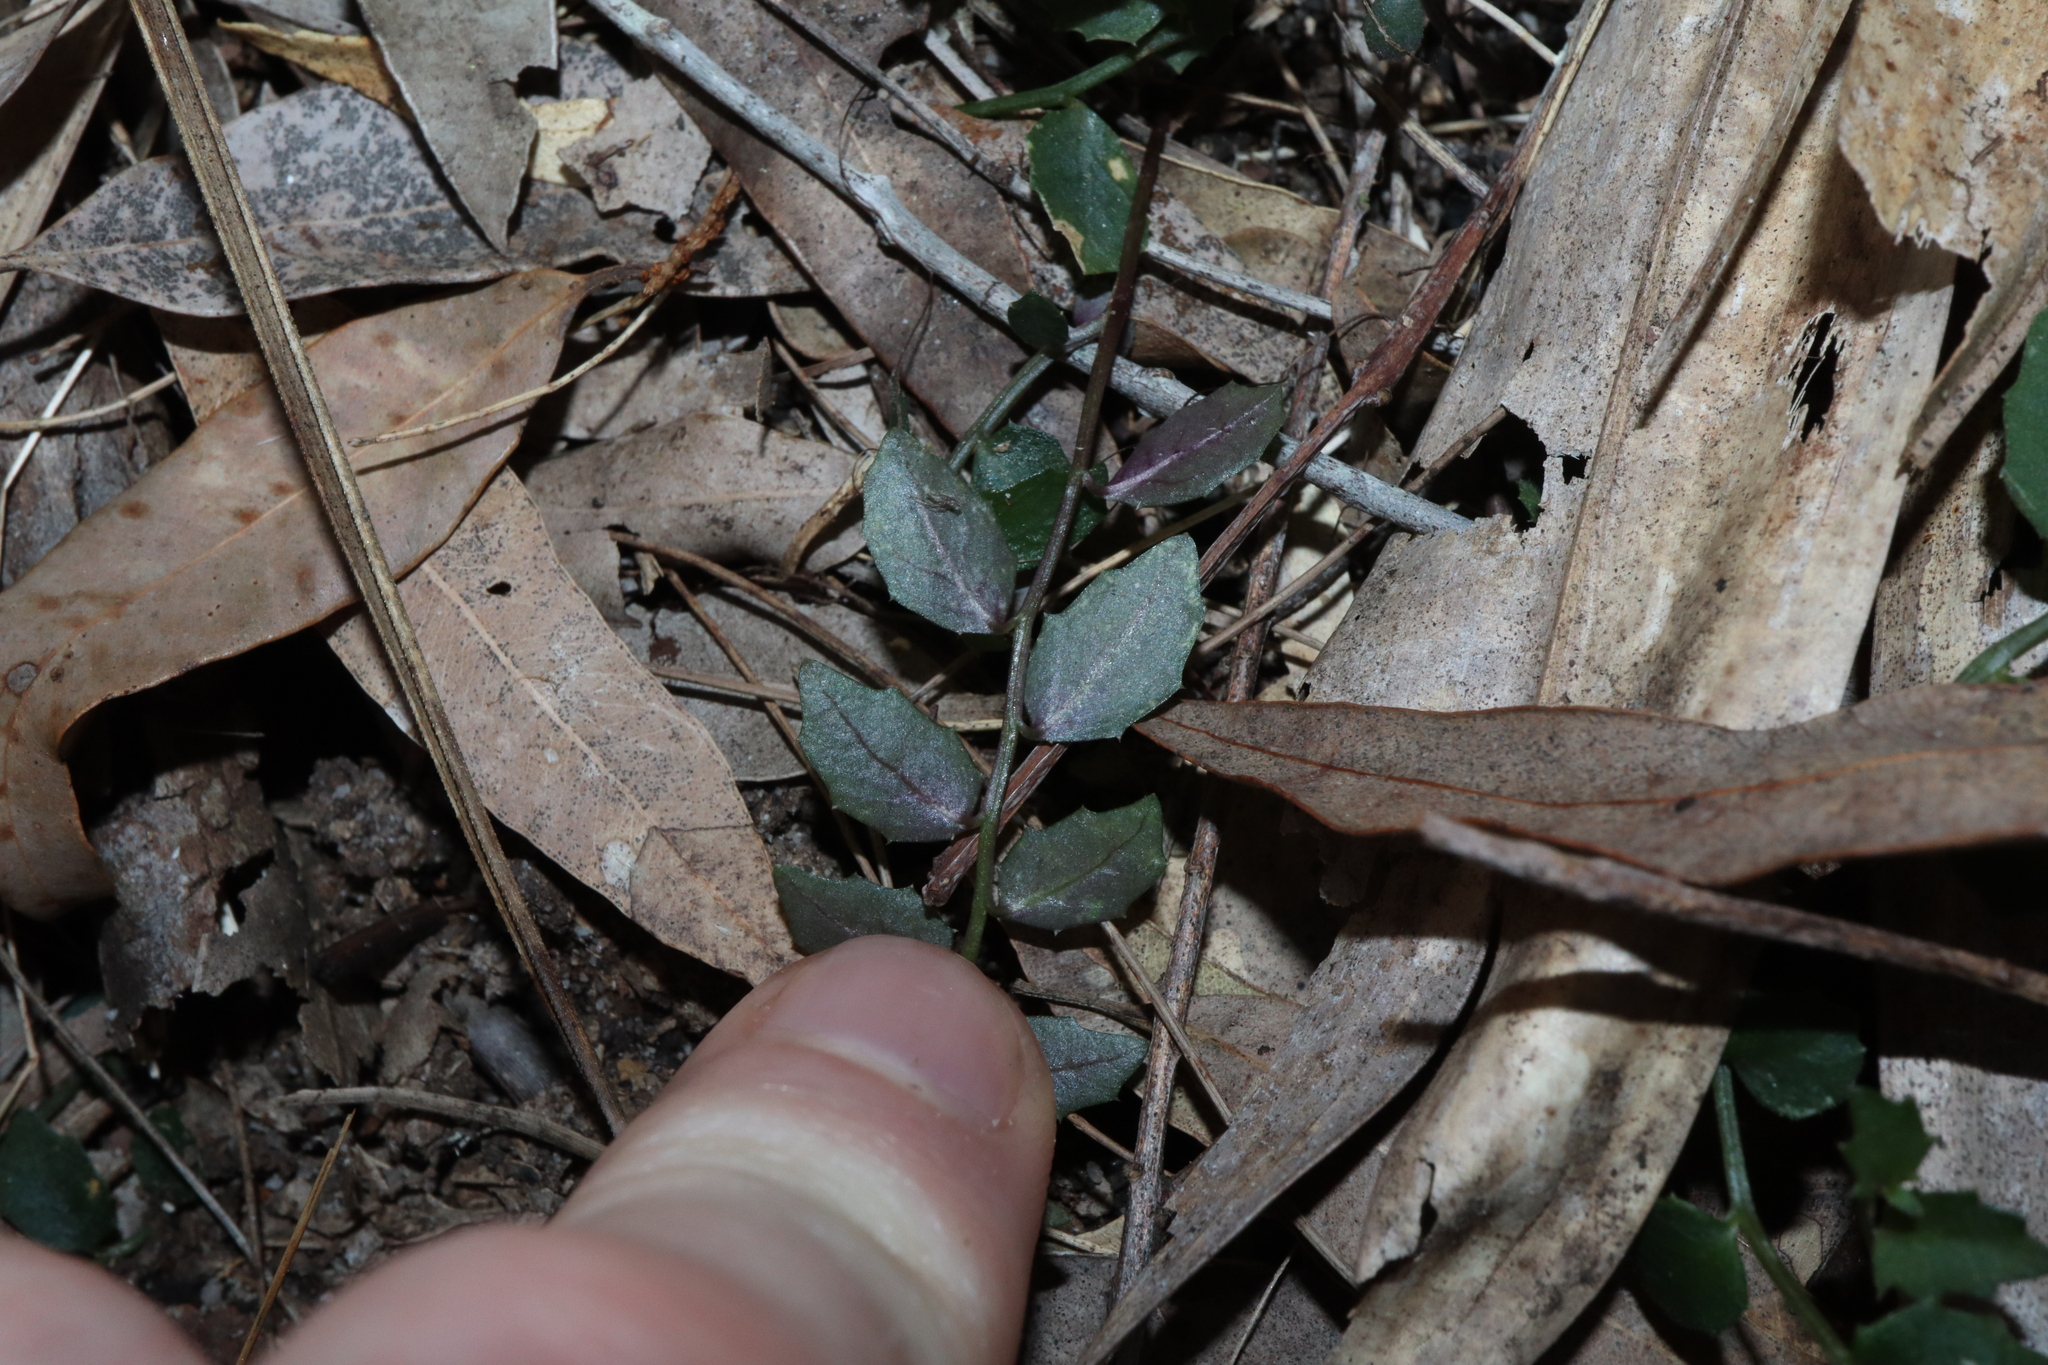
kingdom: Plantae
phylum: Tracheophyta
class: Magnoliopsida
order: Asterales
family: Campanulaceae
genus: Lobelia
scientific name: Lobelia purpurascens
